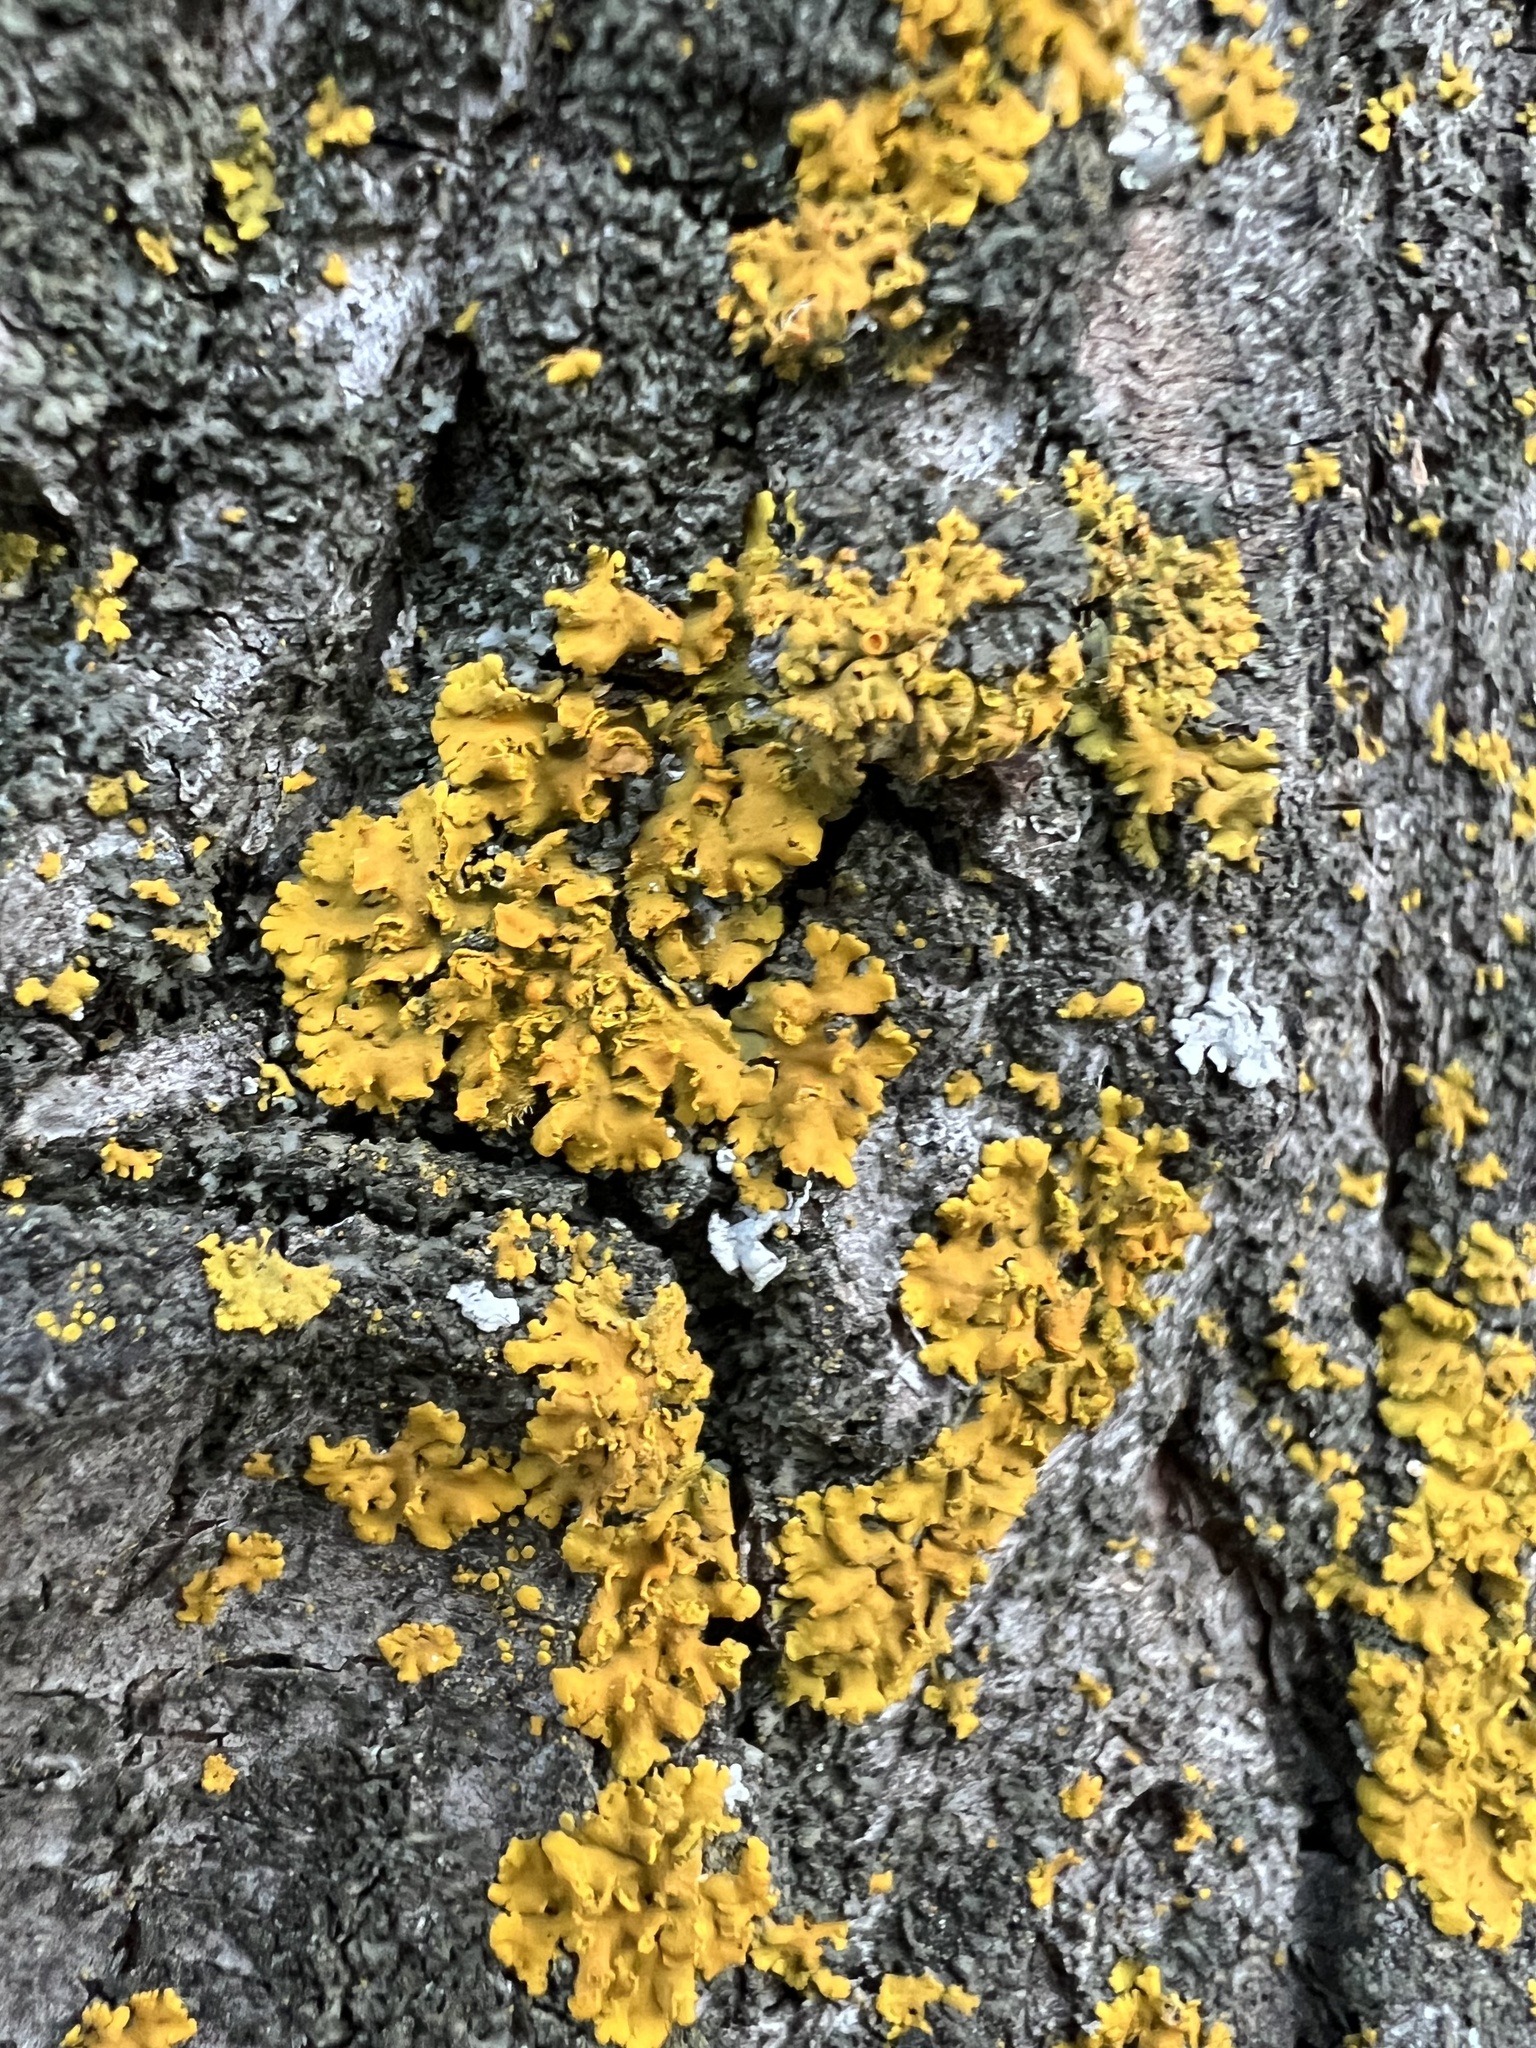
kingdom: Fungi
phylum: Ascomycota
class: Lecanoromycetes
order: Teloschistales
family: Teloschistaceae
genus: Oxneria
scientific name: Oxneria fallax
